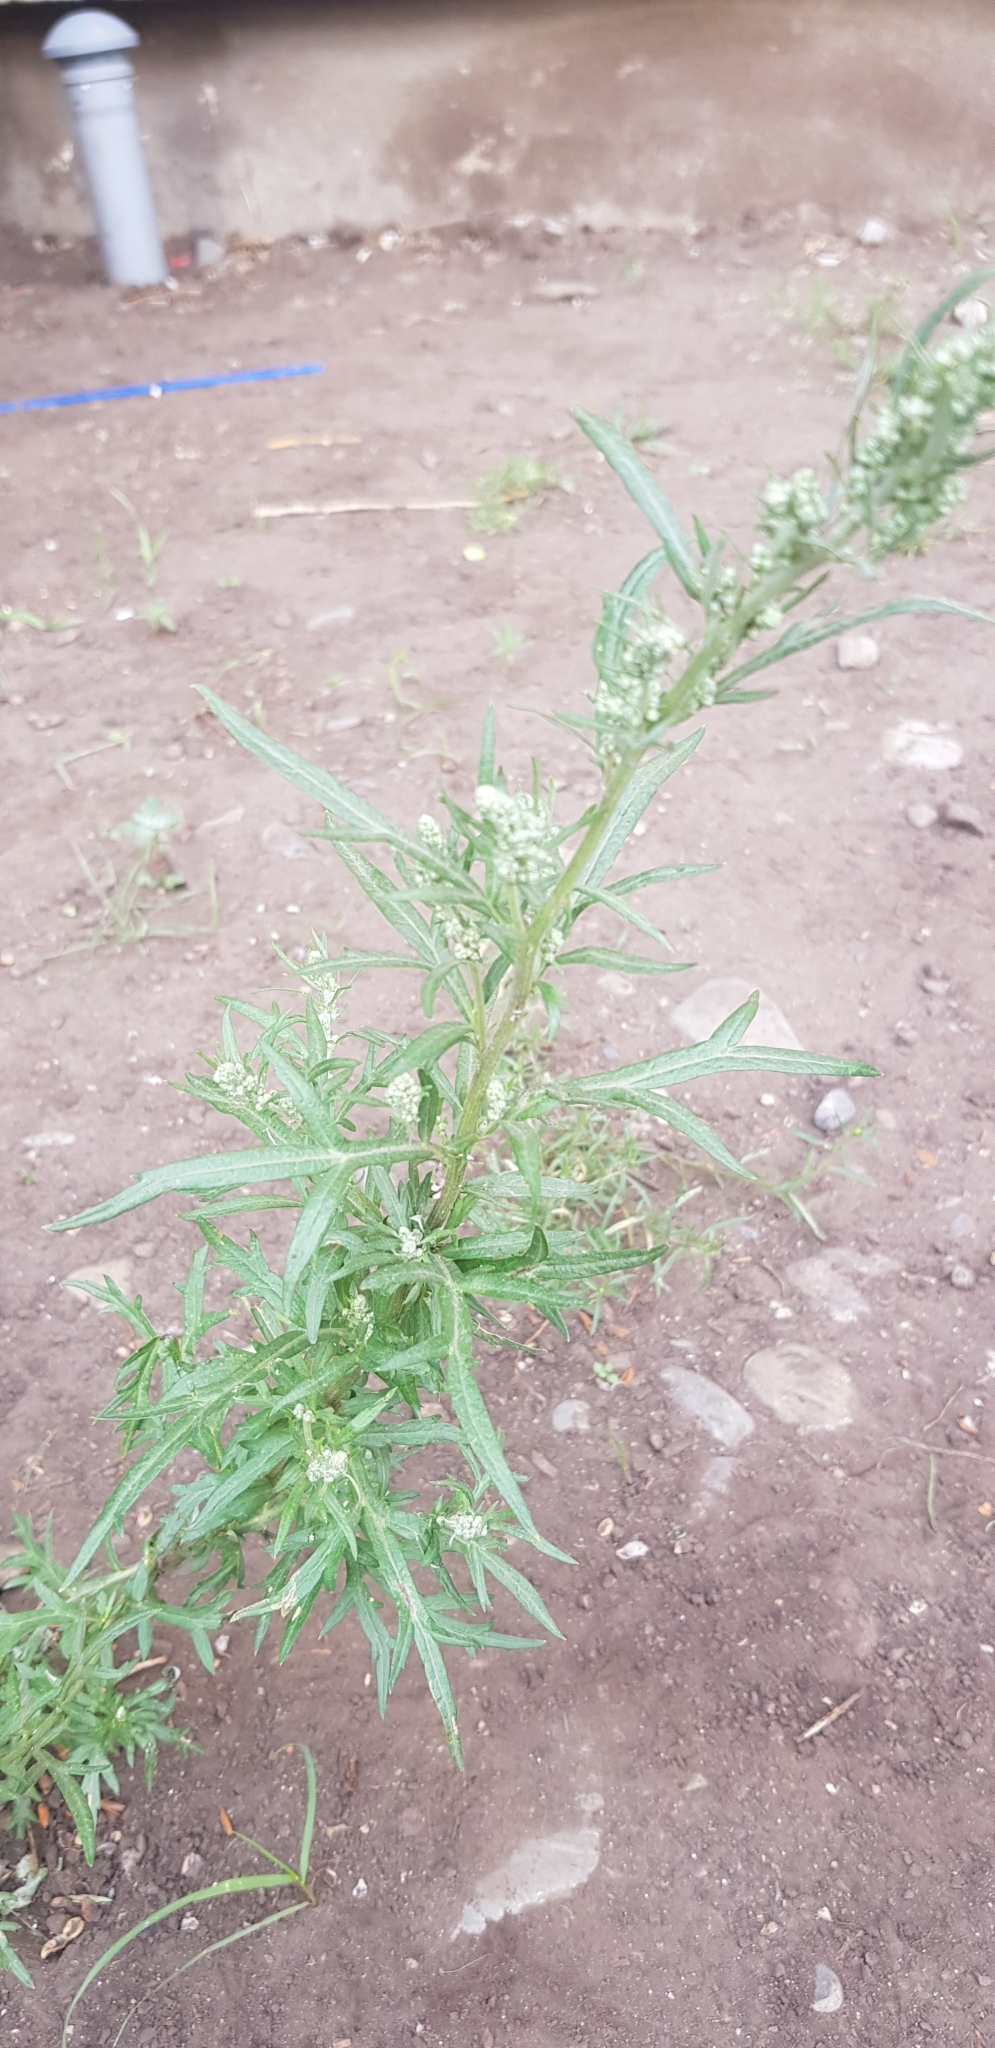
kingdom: Plantae
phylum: Tracheophyta
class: Magnoliopsida
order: Asterales
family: Asteraceae
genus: Artemisia
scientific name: Artemisia gmelinii
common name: Gmelin's wormwood
